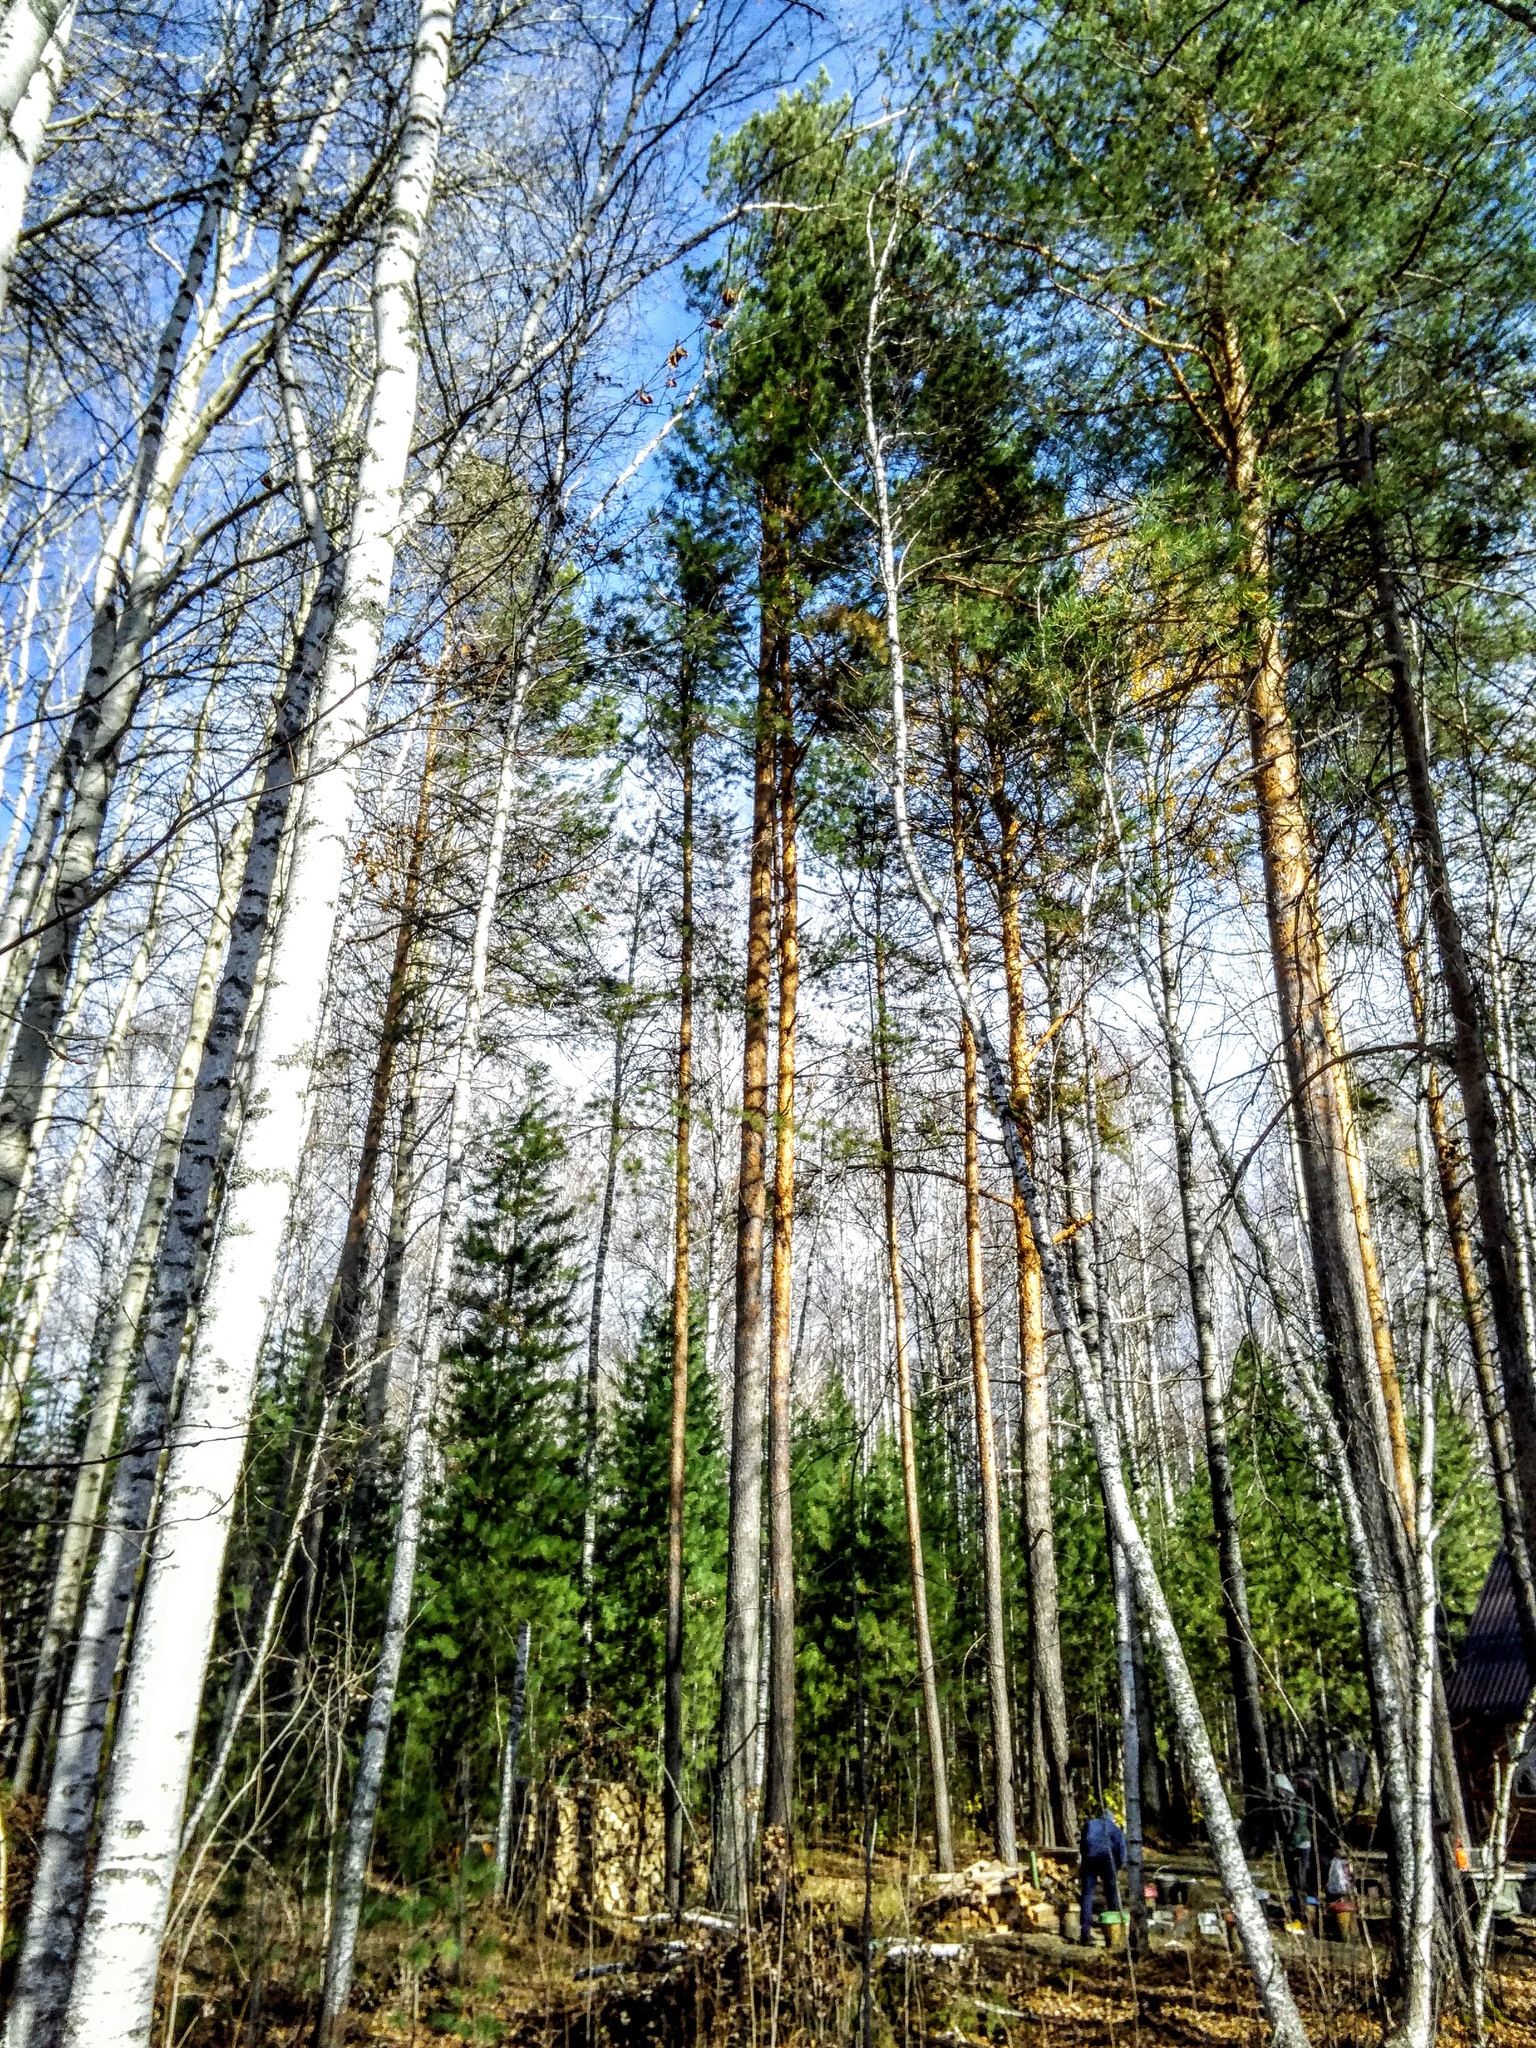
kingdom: Plantae
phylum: Tracheophyta
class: Pinopsida
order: Pinales
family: Pinaceae
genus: Pinus
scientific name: Pinus sylvestris
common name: Scots pine
